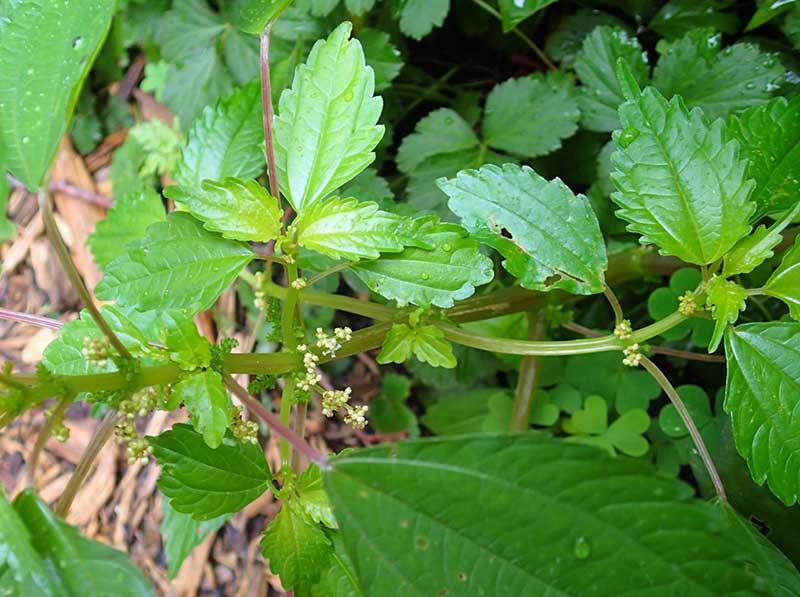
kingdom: Plantae
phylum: Tracheophyta
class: Magnoliopsida
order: Rosales
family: Urticaceae
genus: Pilea
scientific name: Pilea pumila
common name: Clearweed
